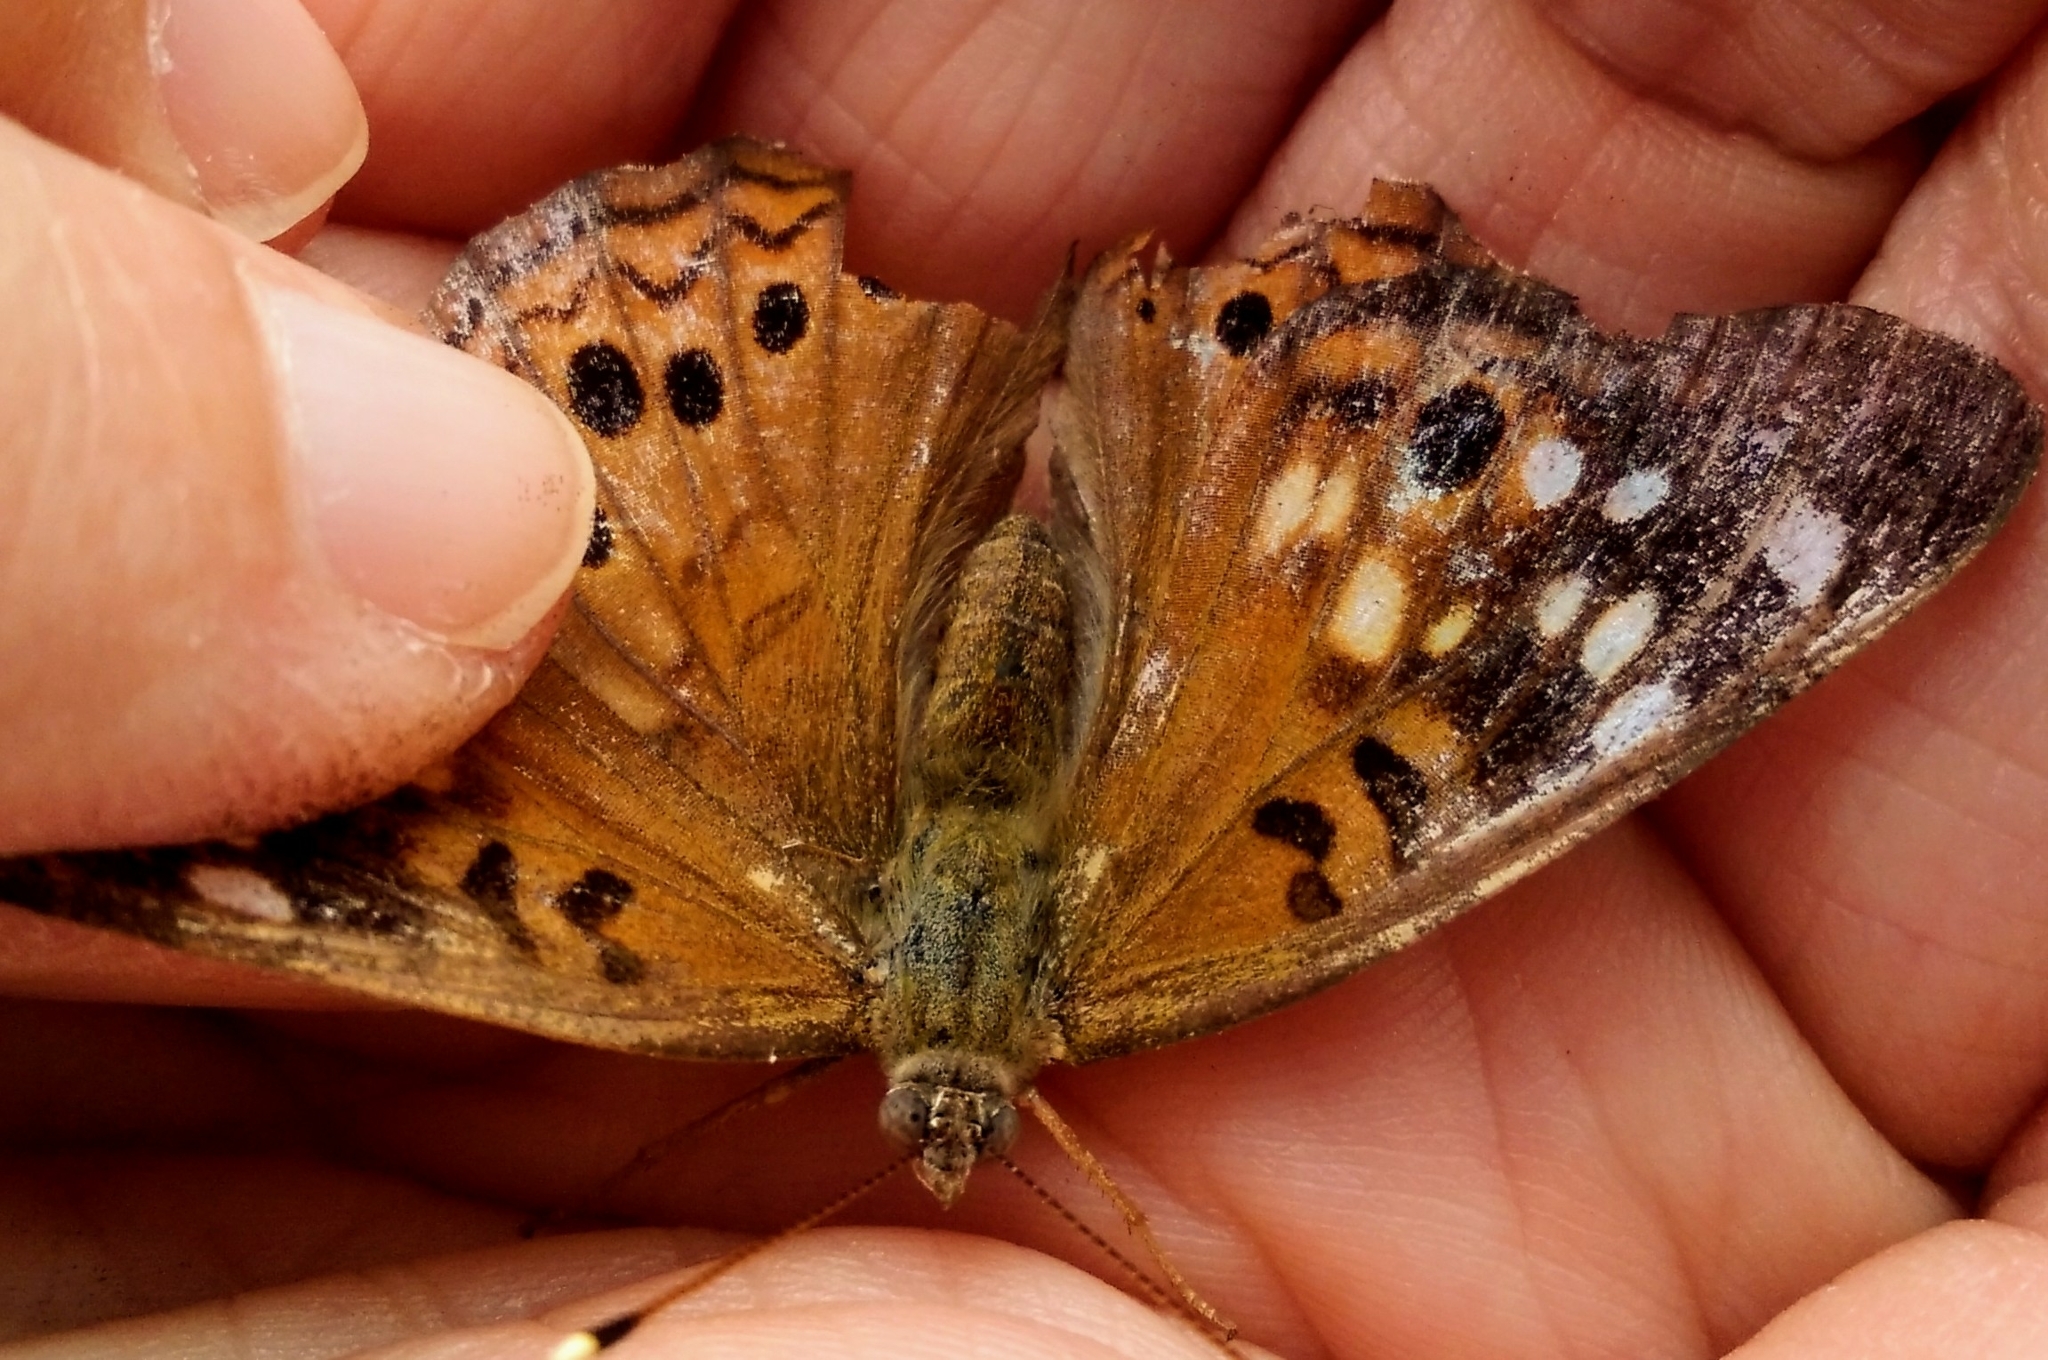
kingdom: Animalia
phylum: Arthropoda
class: Insecta
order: Lepidoptera
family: Nymphalidae
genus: Asterocampa
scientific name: Asterocampa celtis
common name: Hackberry emperor
